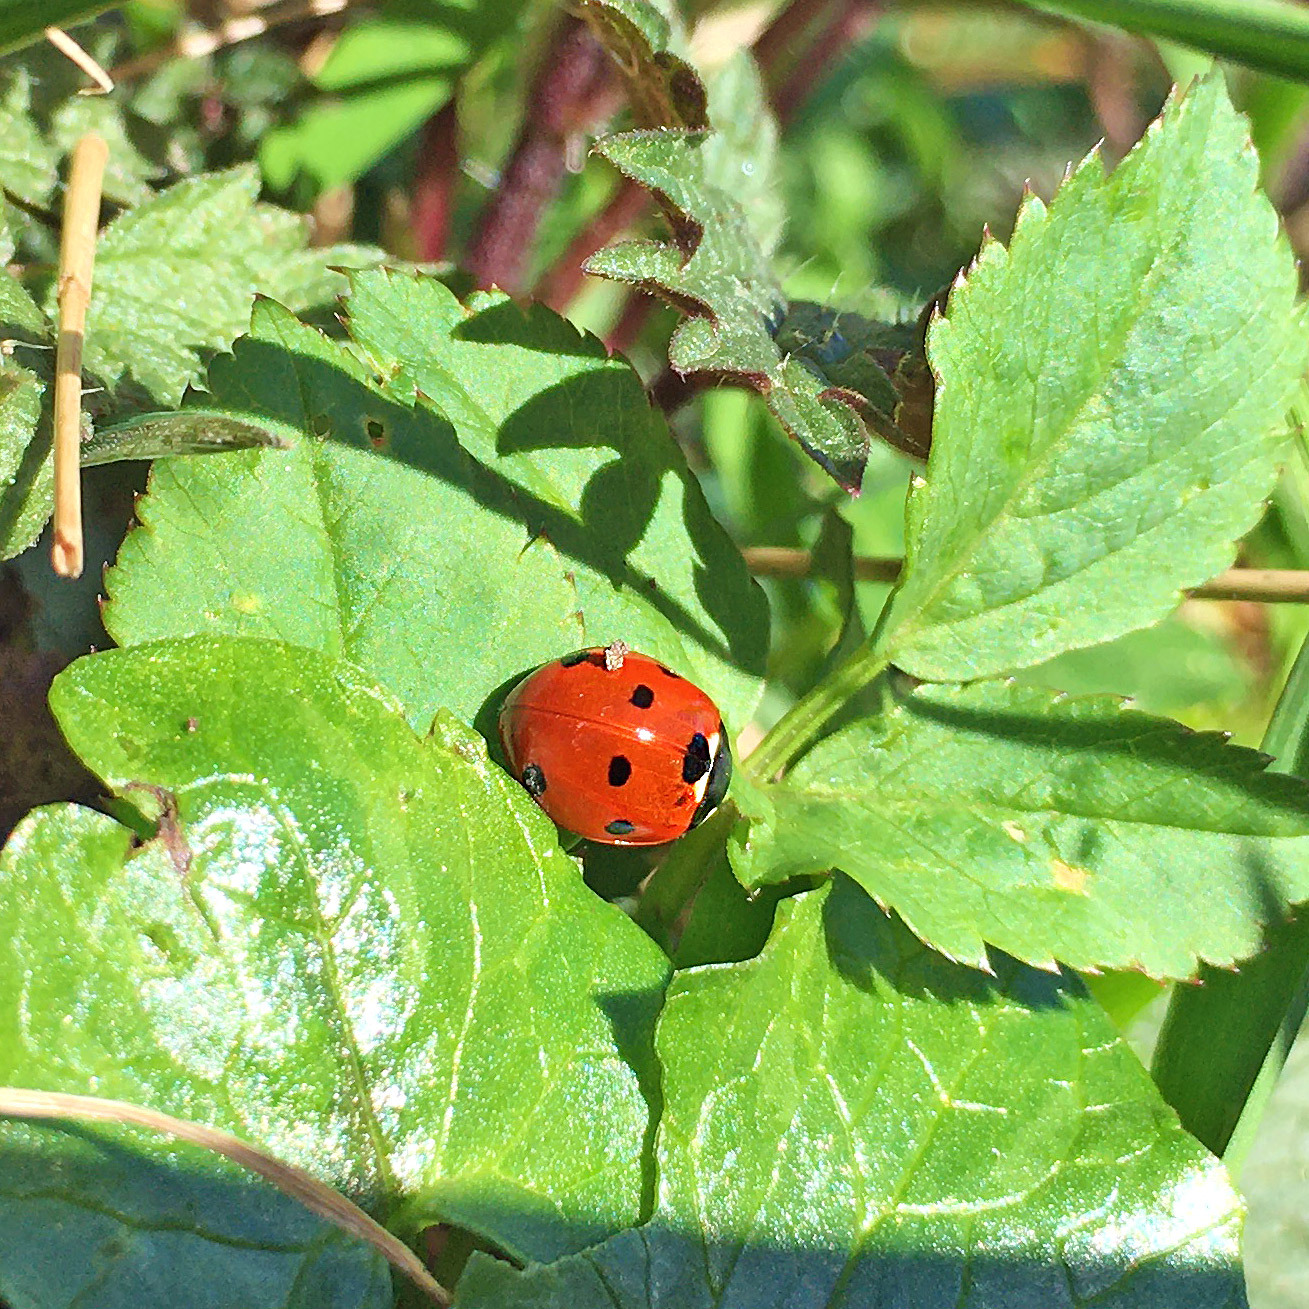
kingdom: Animalia
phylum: Arthropoda
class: Insecta
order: Coleoptera
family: Coccinellidae
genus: Coccinella
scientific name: Coccinella septempunctata
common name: Sevenspotted lady beetle
